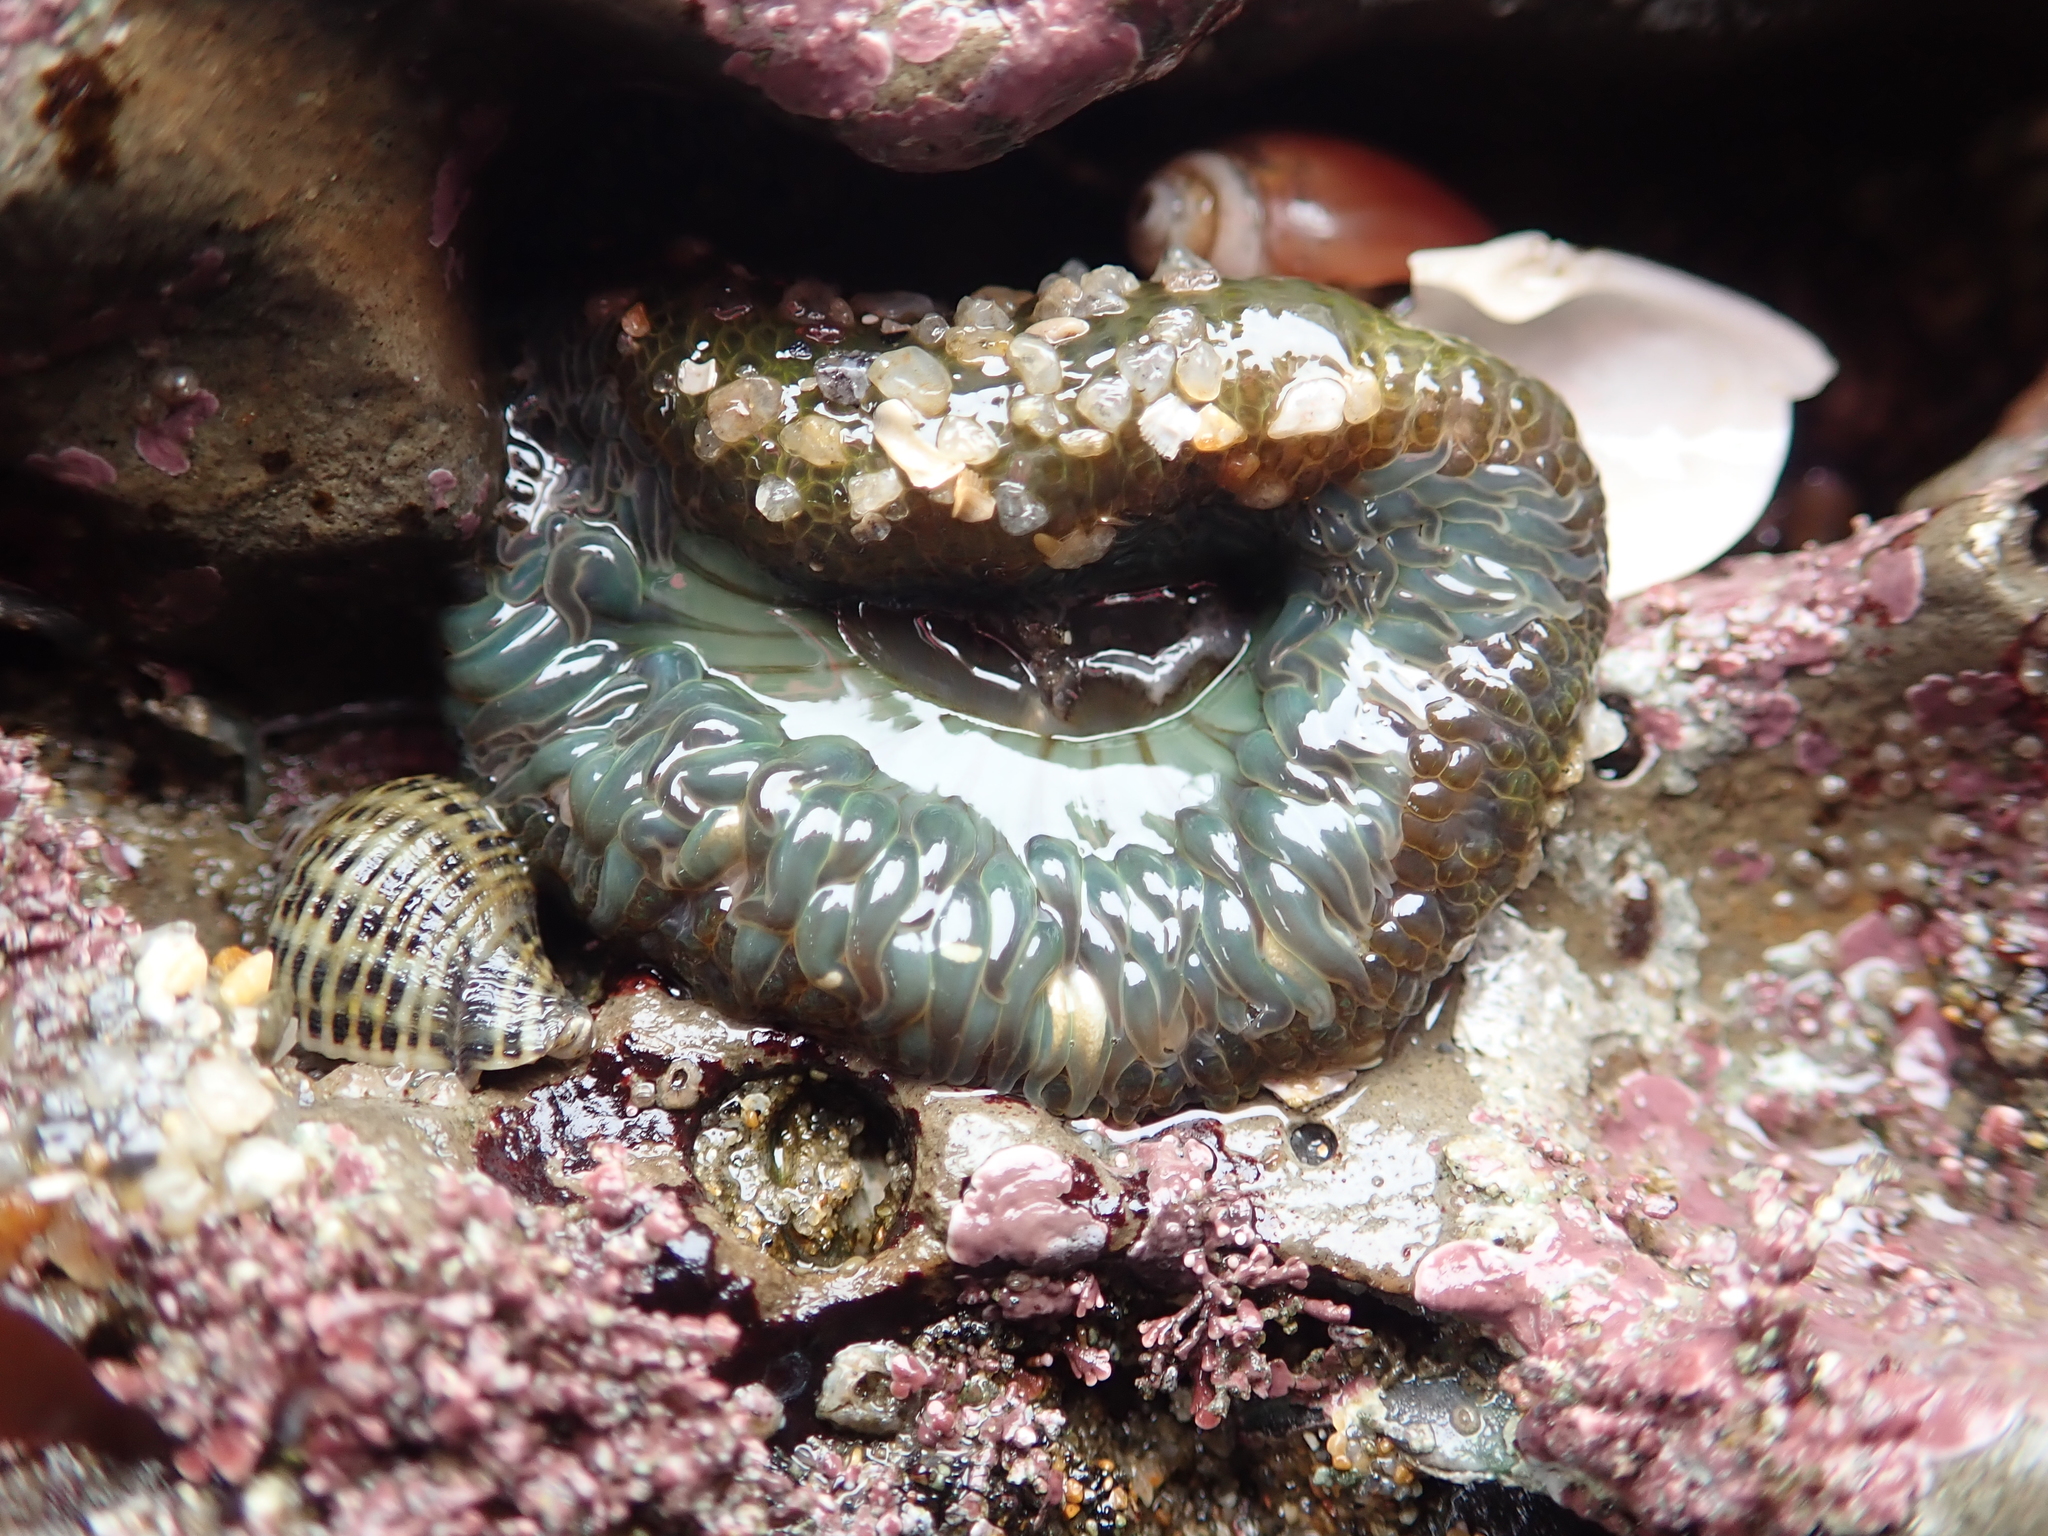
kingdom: Animalia
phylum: Cnidaria
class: Anthozoa
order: Actiniaria
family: Actiniidae
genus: Anthopleura
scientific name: Anthopleura sola
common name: Sun anemone
